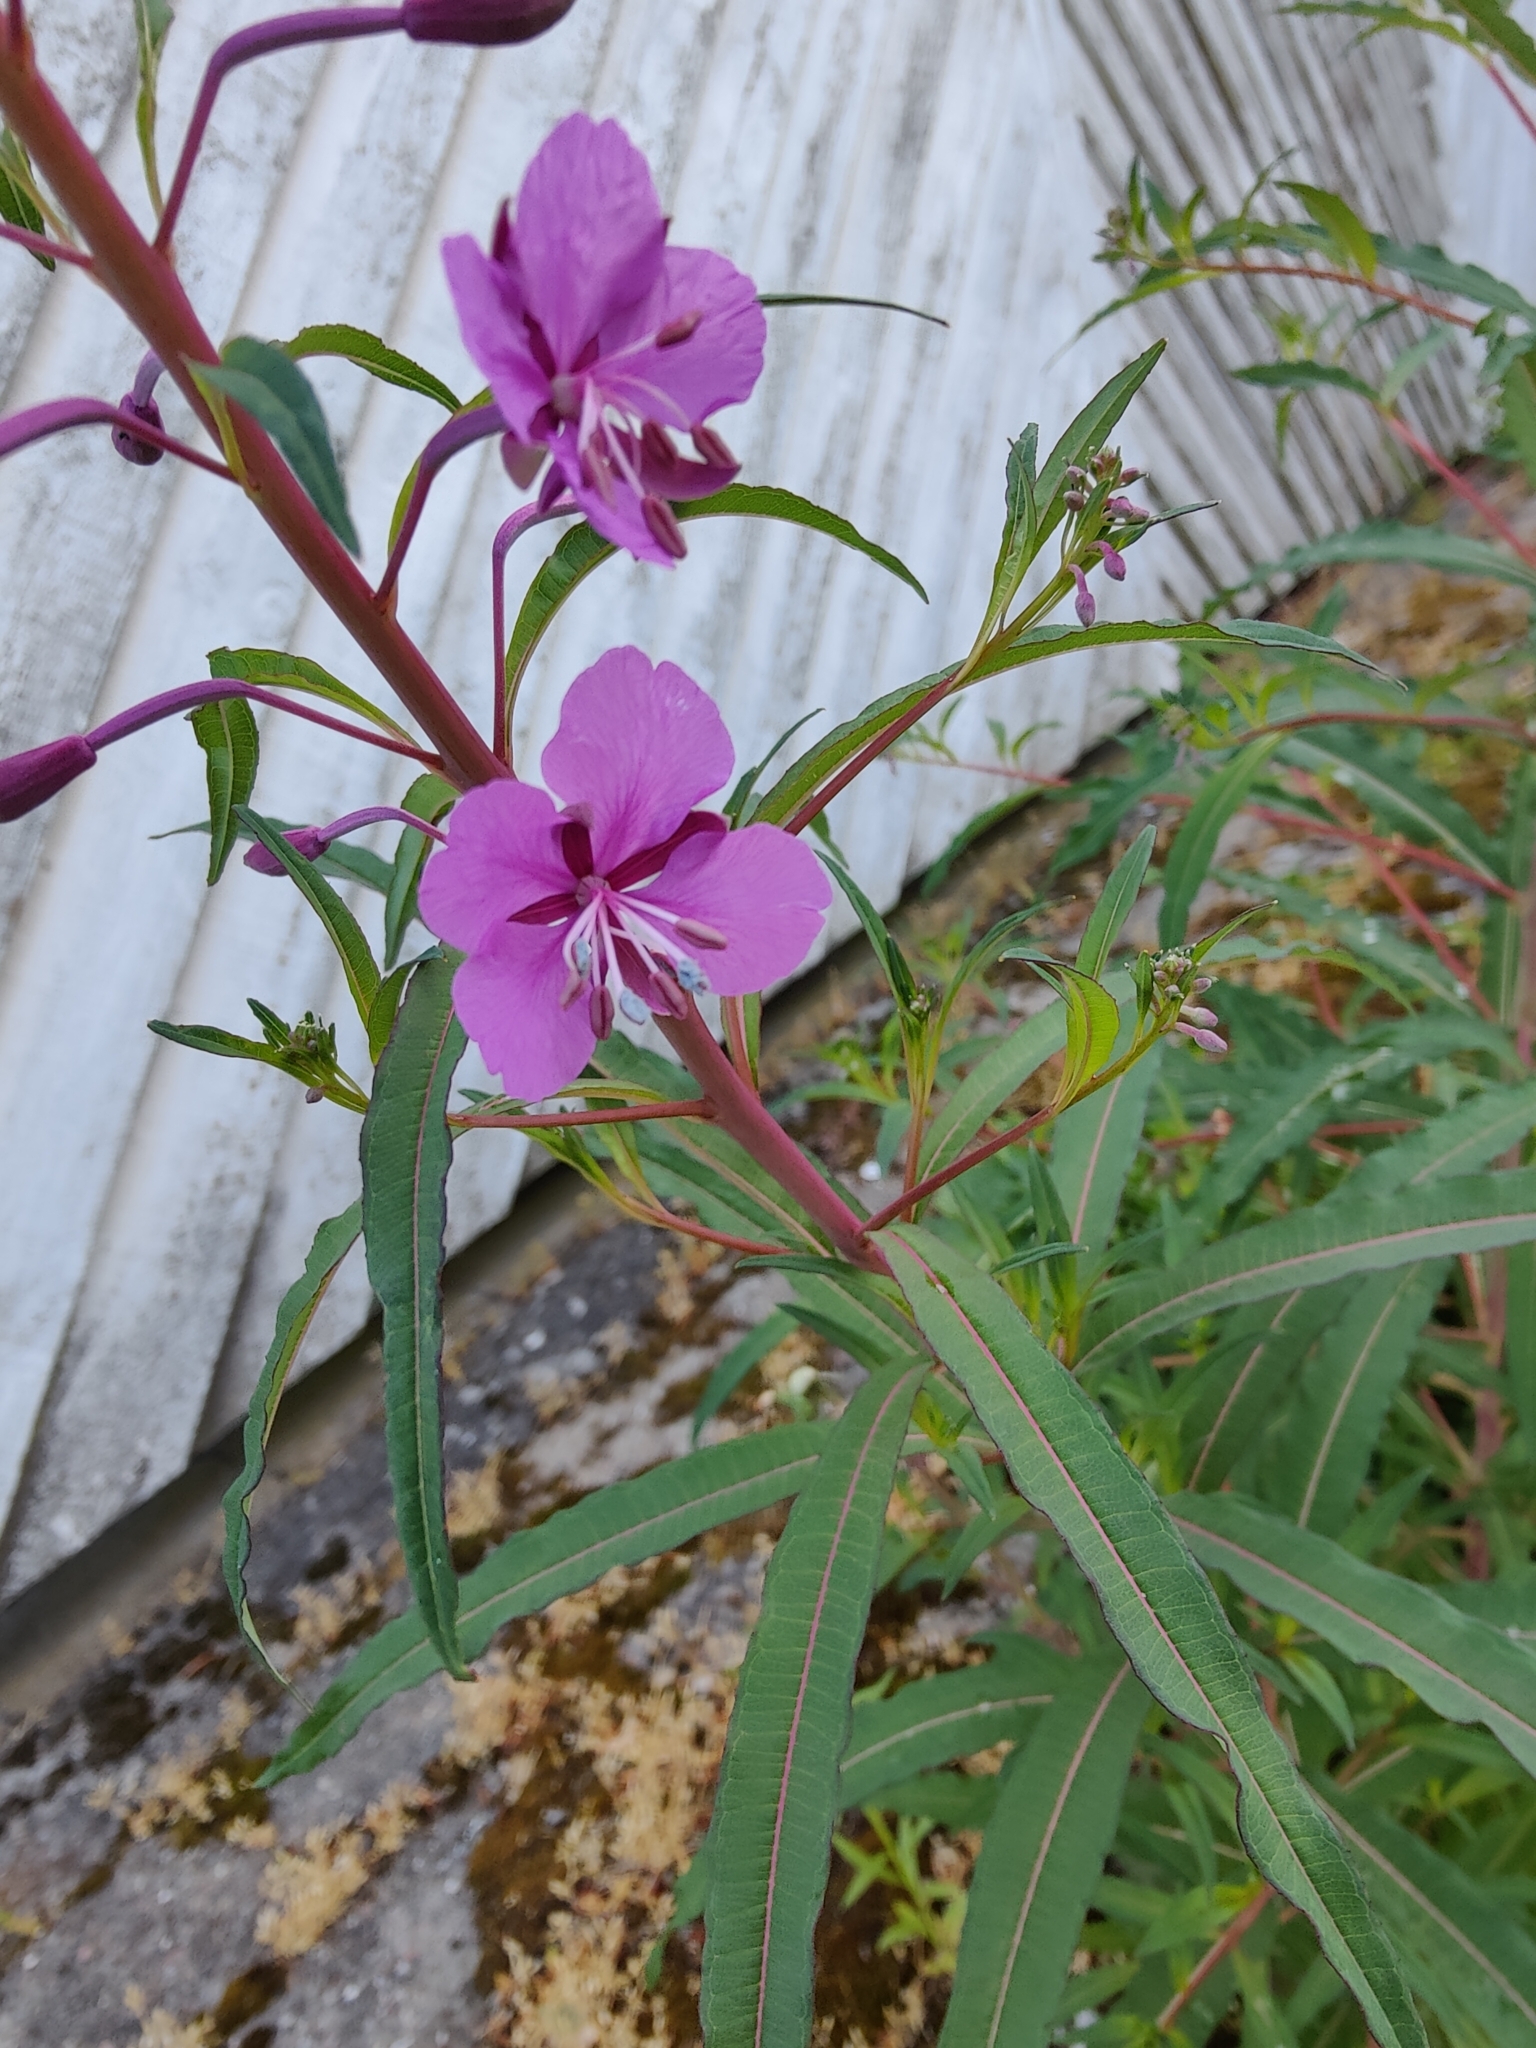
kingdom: Plantae
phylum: Tracheophyta
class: Magnoliopsida
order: Myrtales
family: Onagraceae
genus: Chamaenerion
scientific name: Chamaenerion angustifolium
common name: Fireweed
